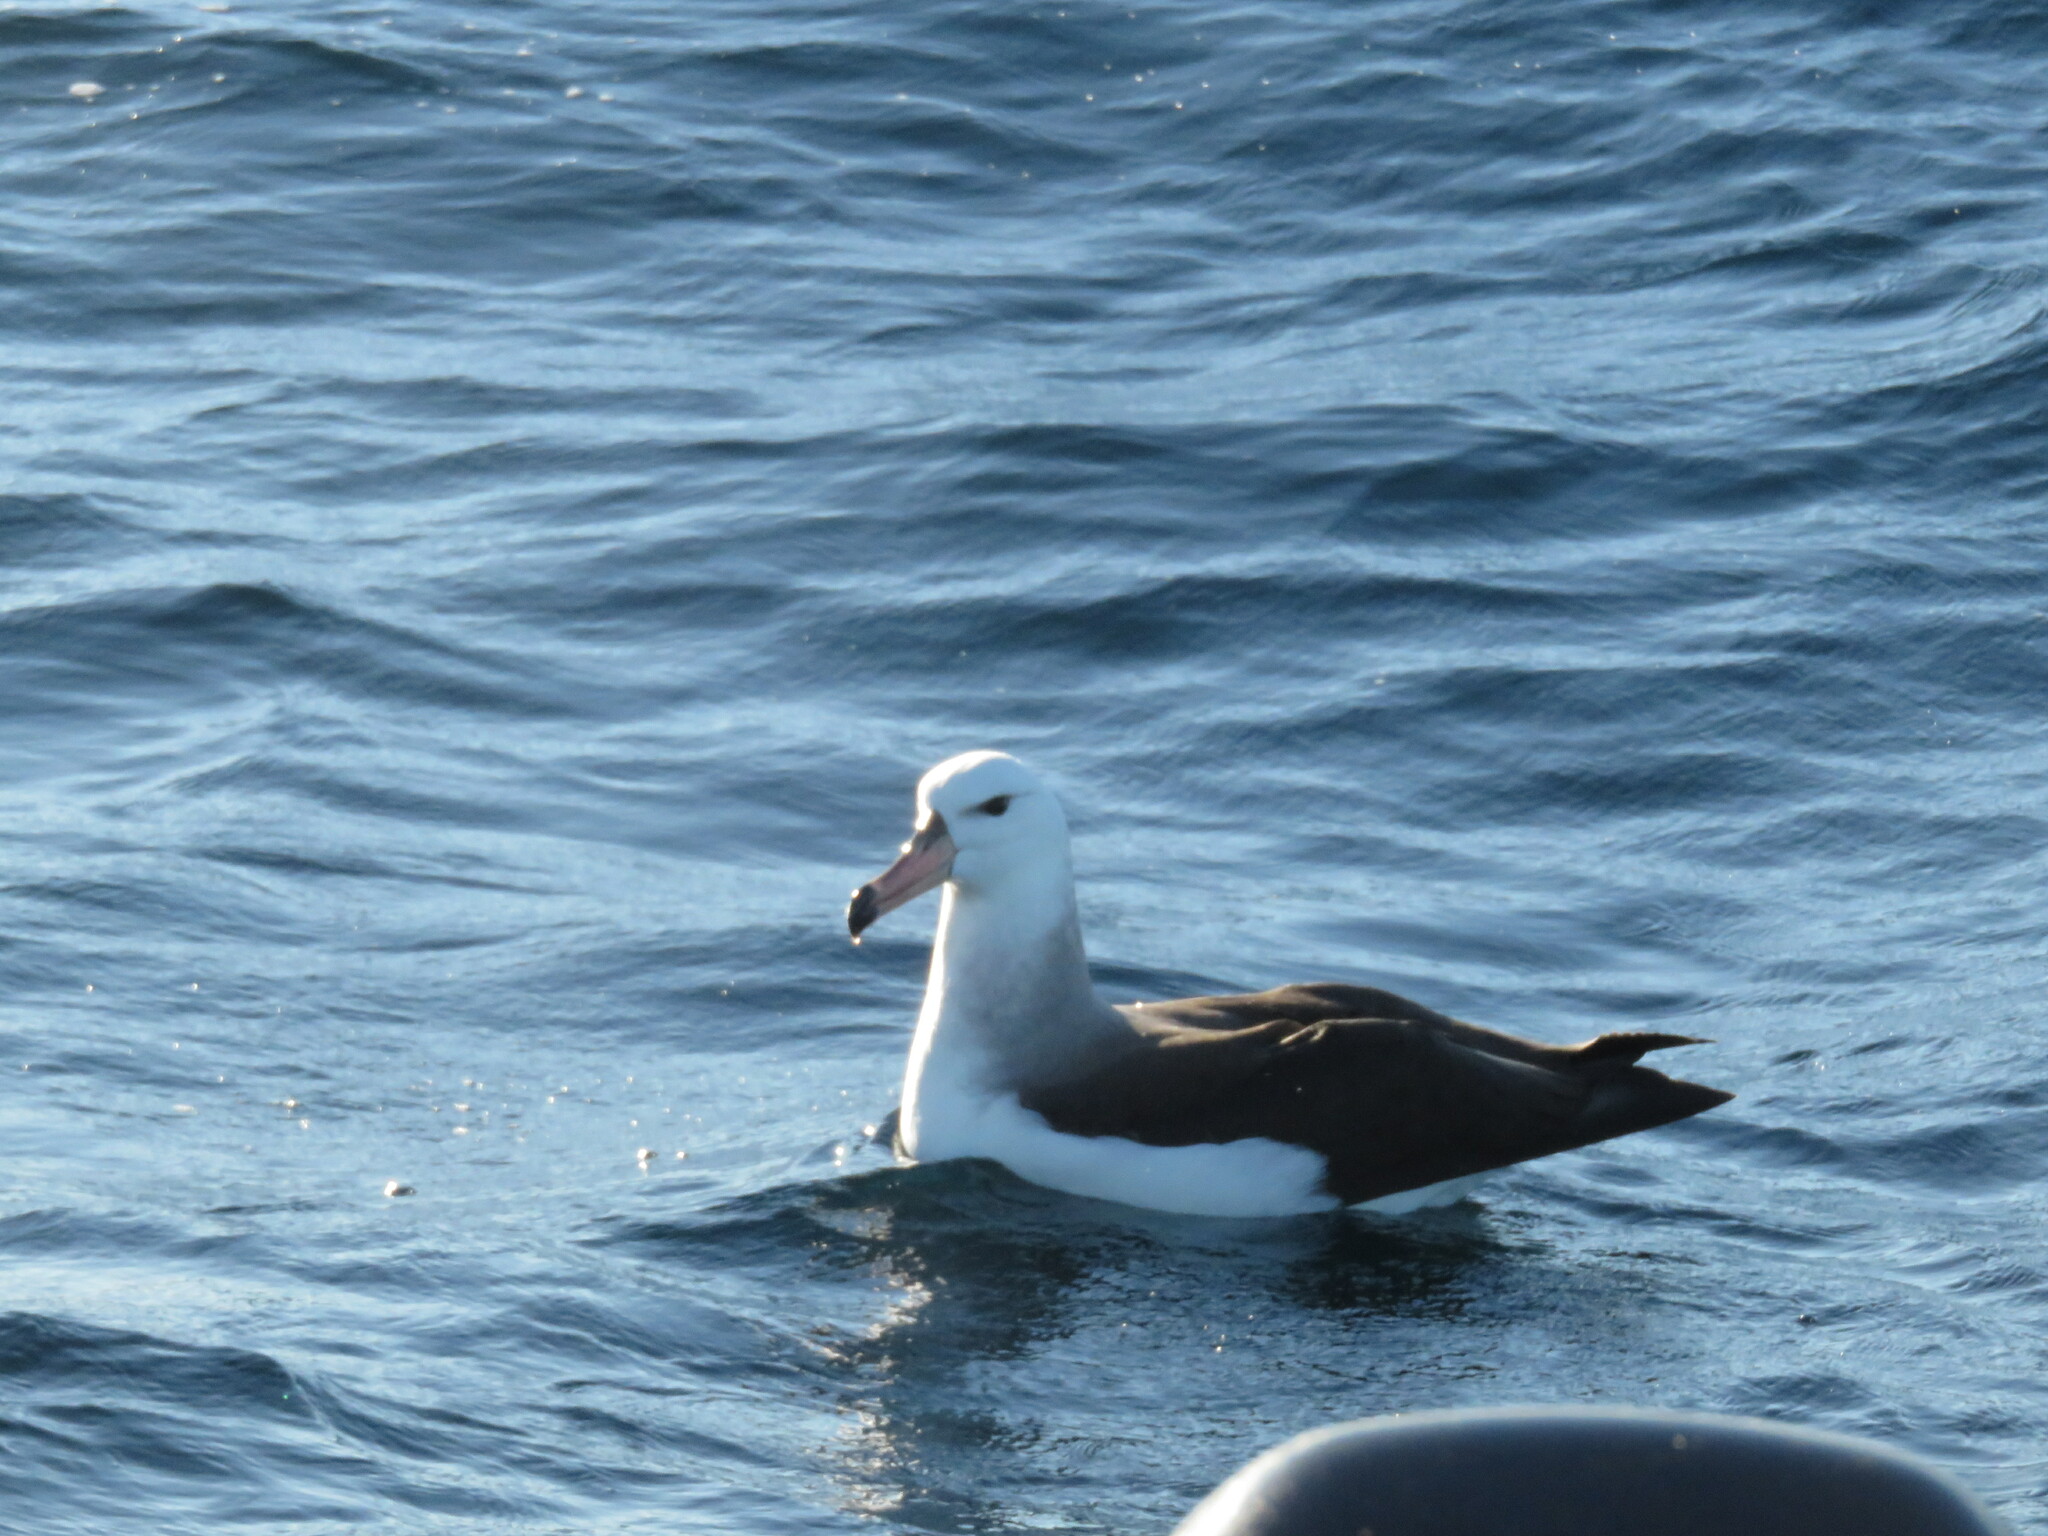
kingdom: Animalia
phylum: Chordata
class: Aves
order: Procellariiformes
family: Diomedeidae
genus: Thalassarche
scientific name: Thalassarche melanophris
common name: Black-browed albatross
